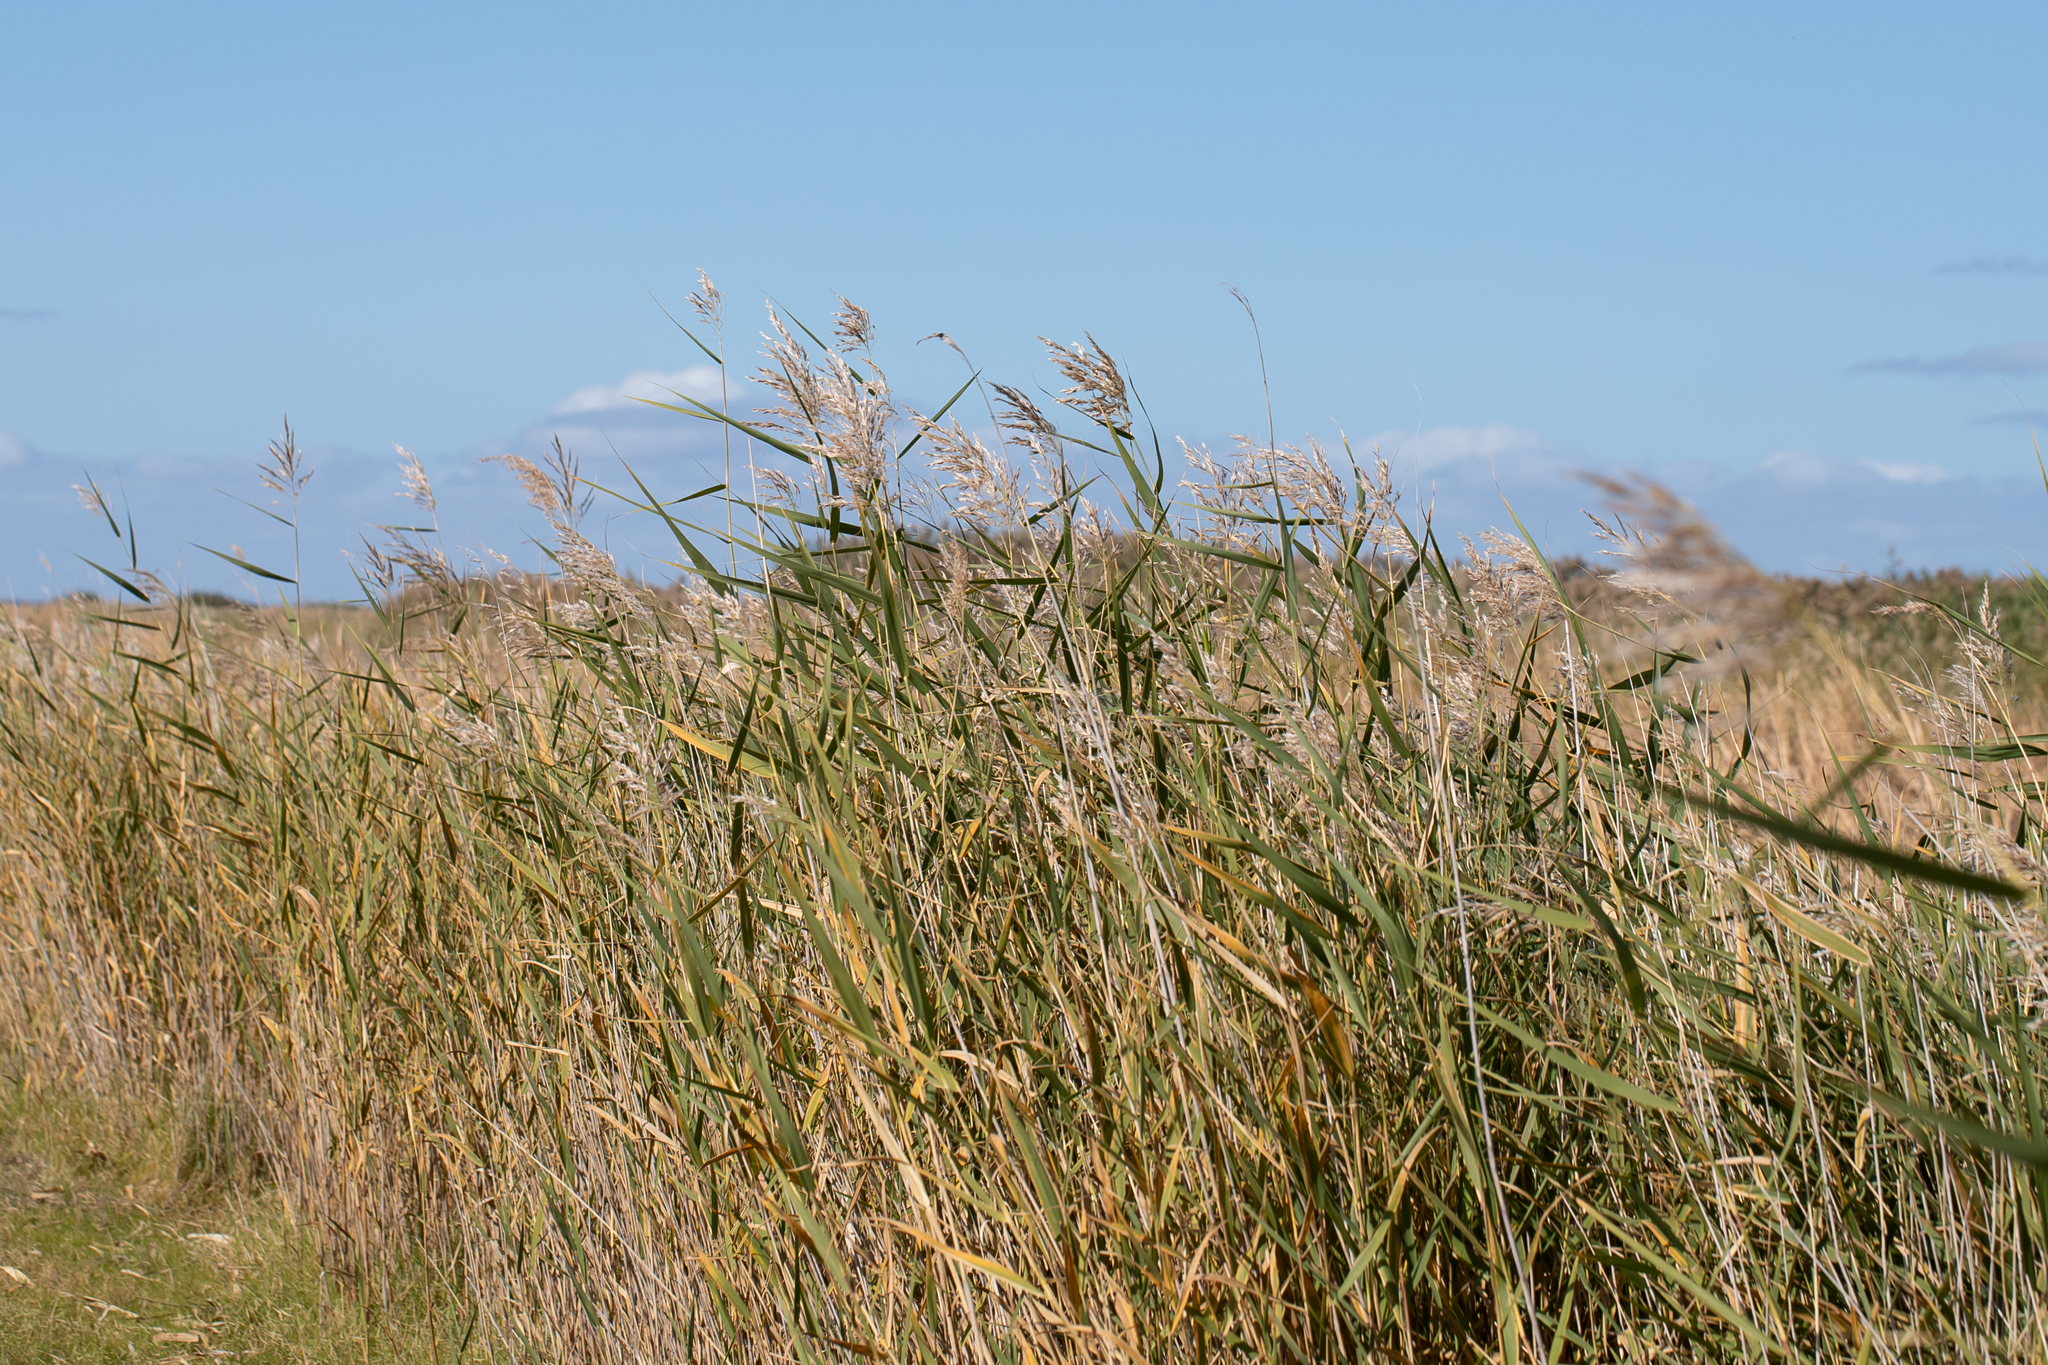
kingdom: Plantae
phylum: Tracheophyta
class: Liliopsida
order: Poales
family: Poaceae
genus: Phragmites
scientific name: Phragmites australis
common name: Common reed
